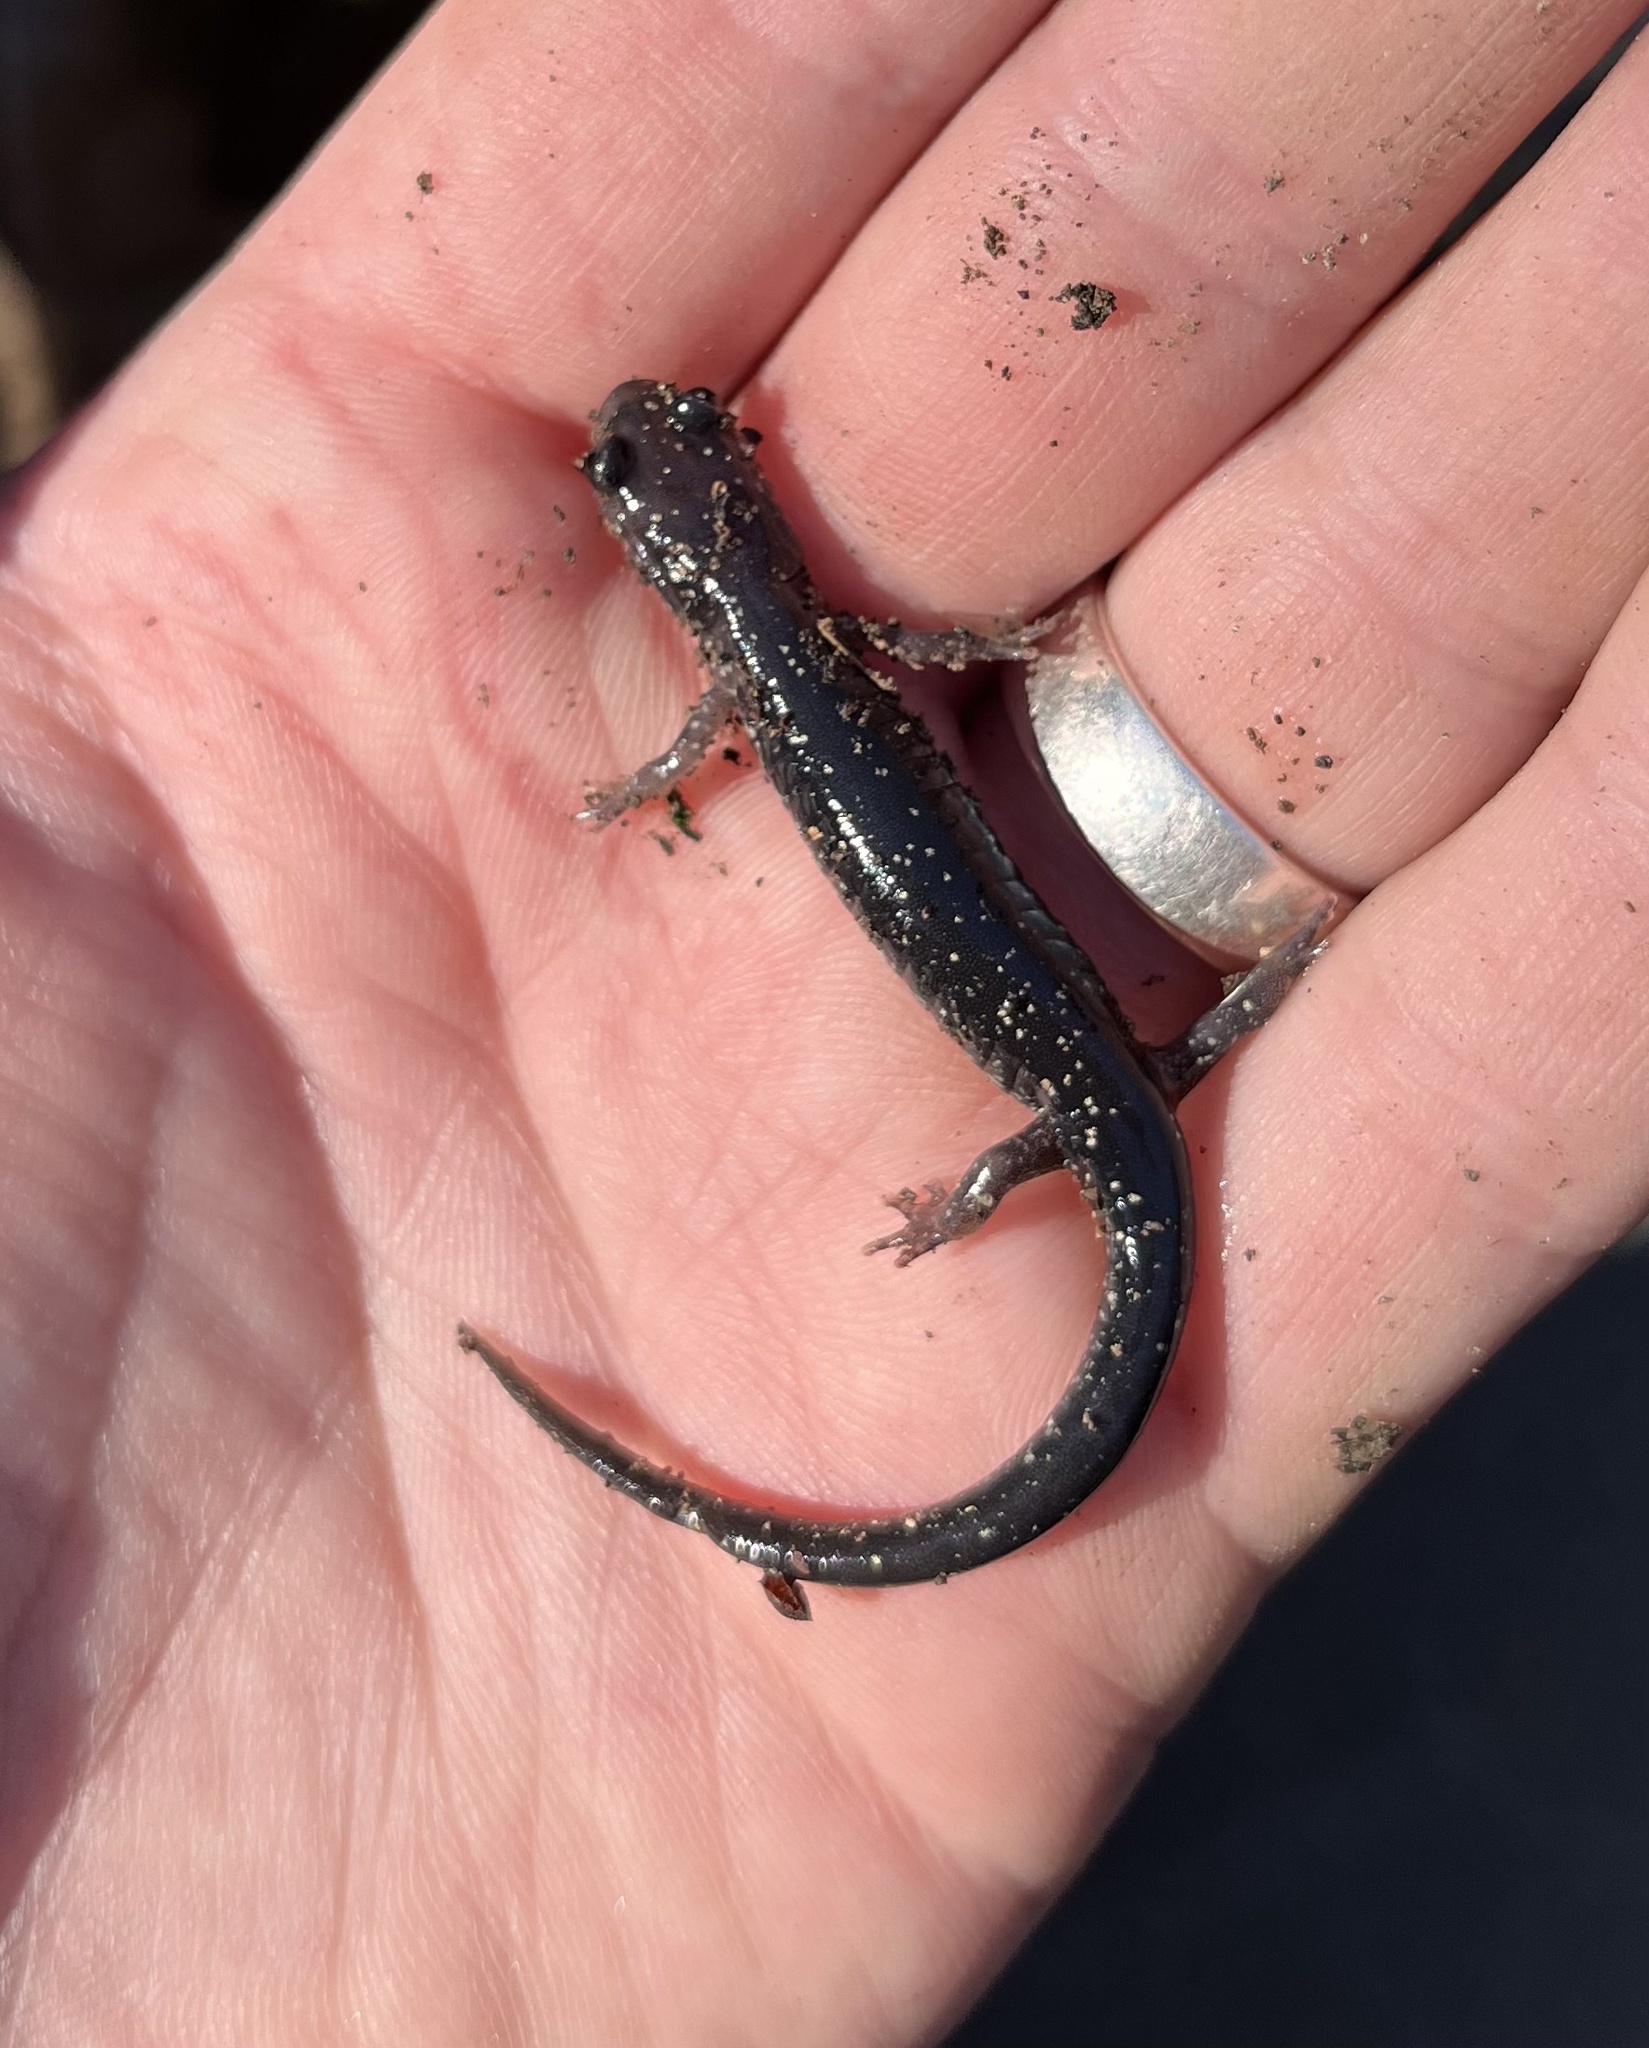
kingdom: Animalia
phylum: Chordata
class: Amphibia
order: Caudata
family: Plethodontidae
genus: Plethodon
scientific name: Plethodon albagula
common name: Western slimy salamander
